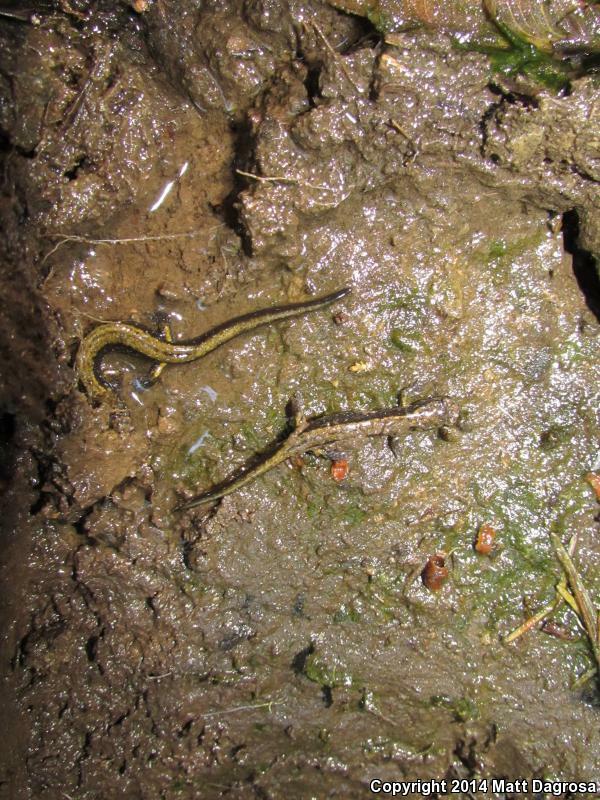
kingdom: Animalia
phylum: Chordata
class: Amphibia
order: Caudata
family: Plethodontidae
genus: Plethodon
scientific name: Plethodon dunni
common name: Dunn's salamander
